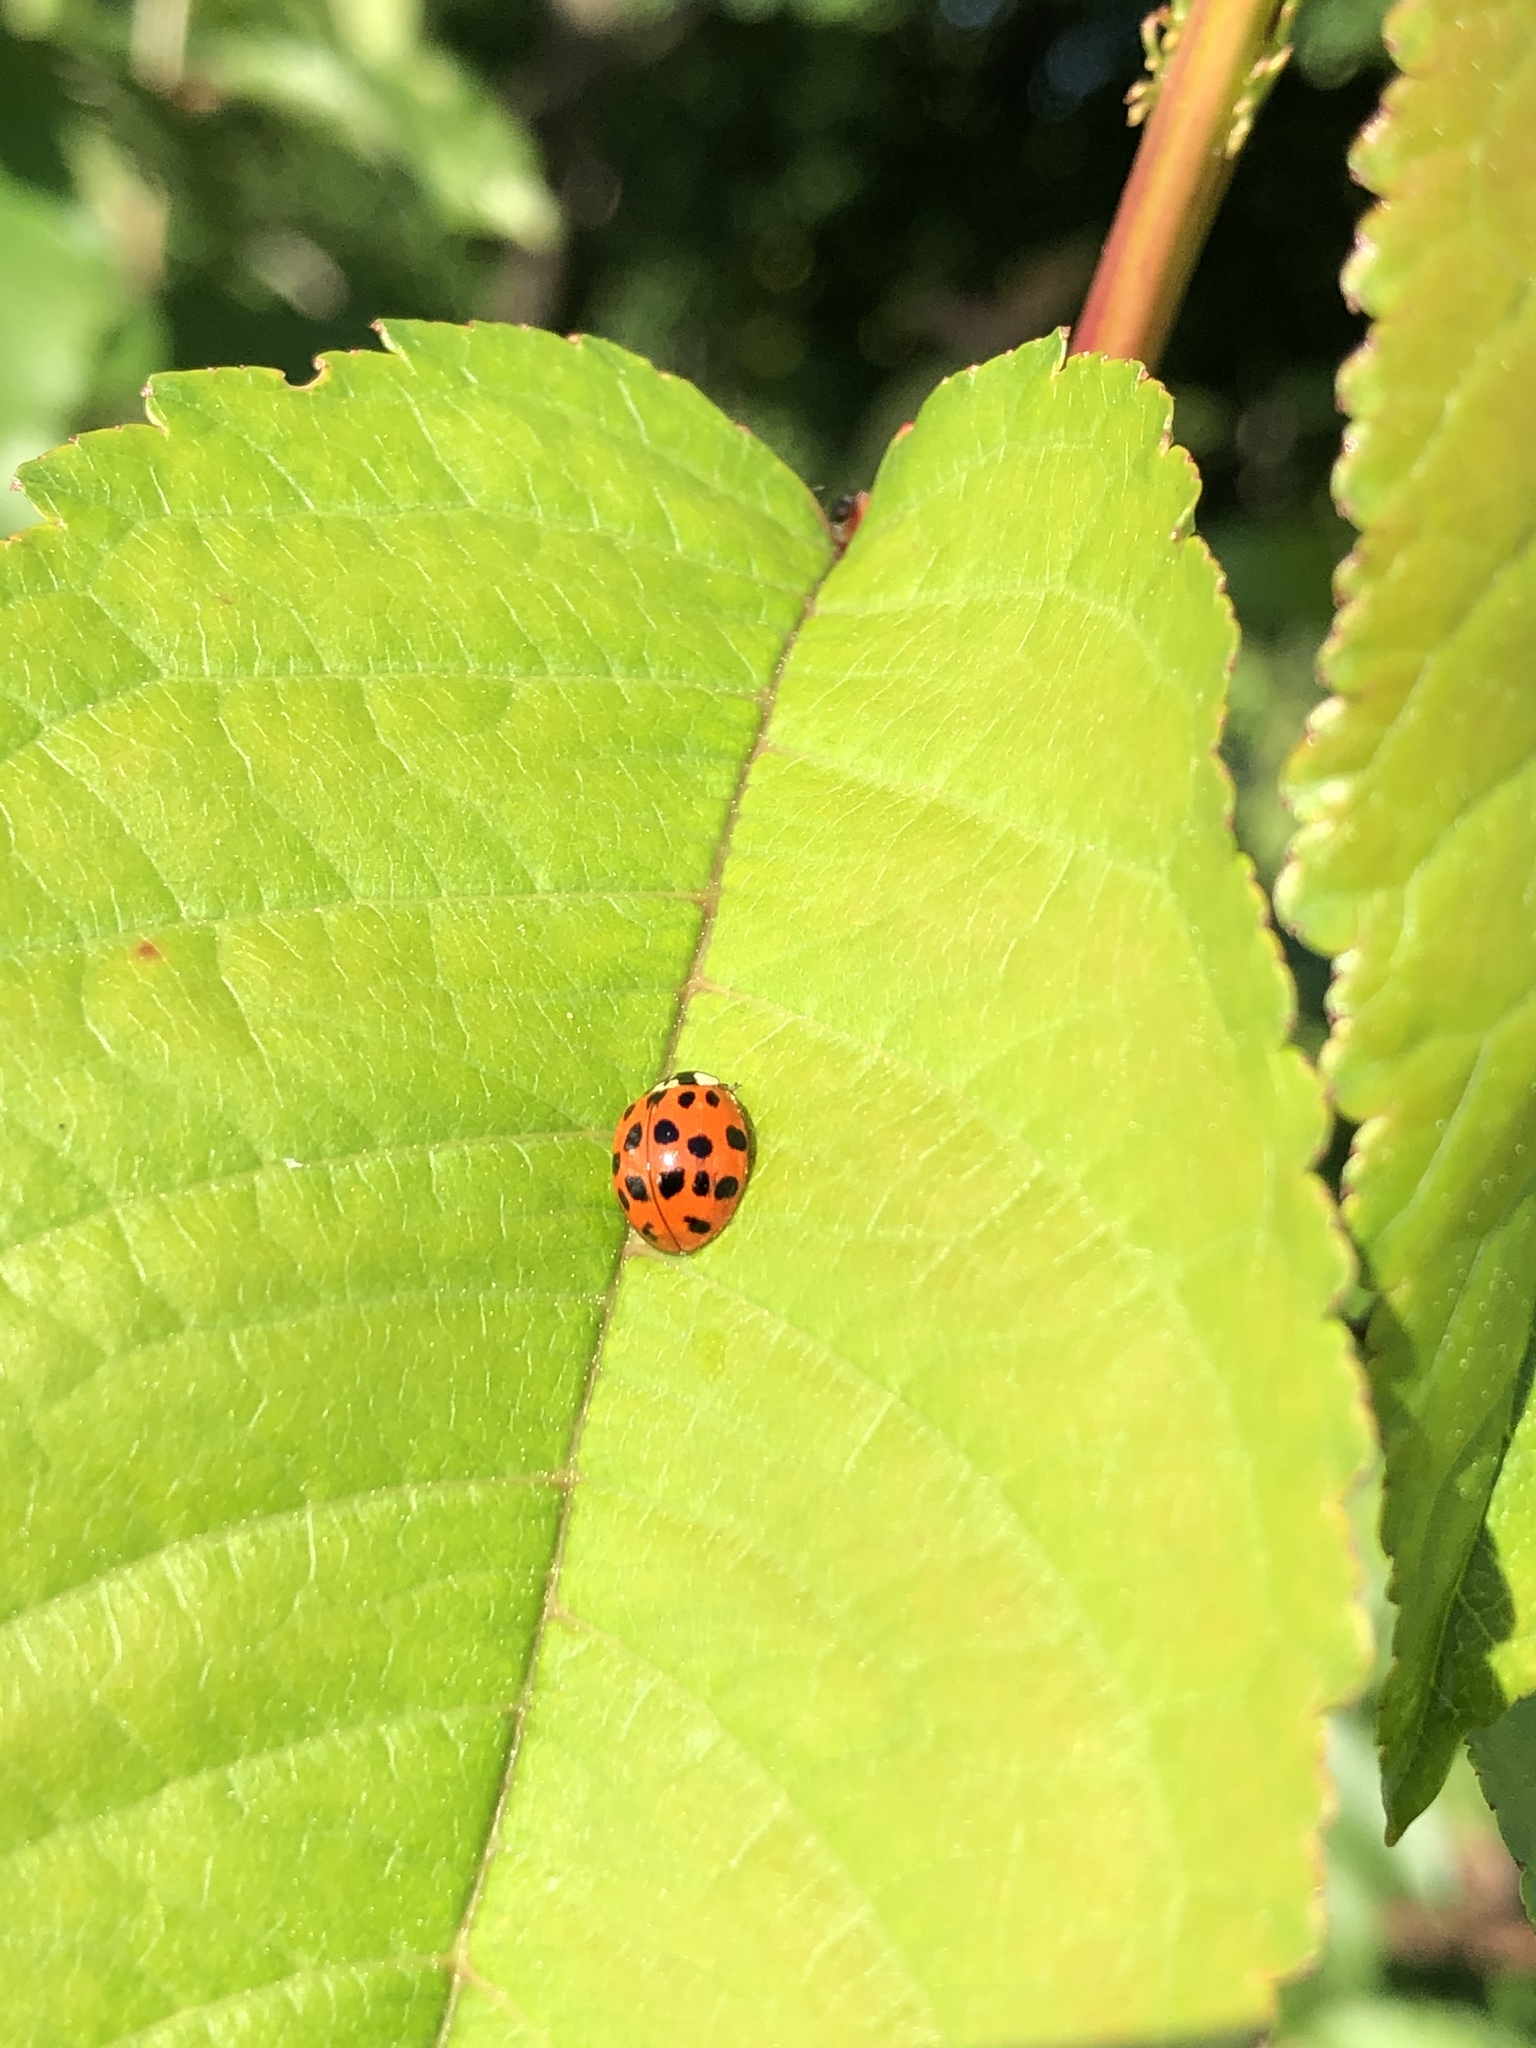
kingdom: Animalia
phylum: Arthropoda
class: Insecta
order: Coleoptera
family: Coccinellidae
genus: Harmonia
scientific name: Harmonia axyridis
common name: Harlequin ladybird
